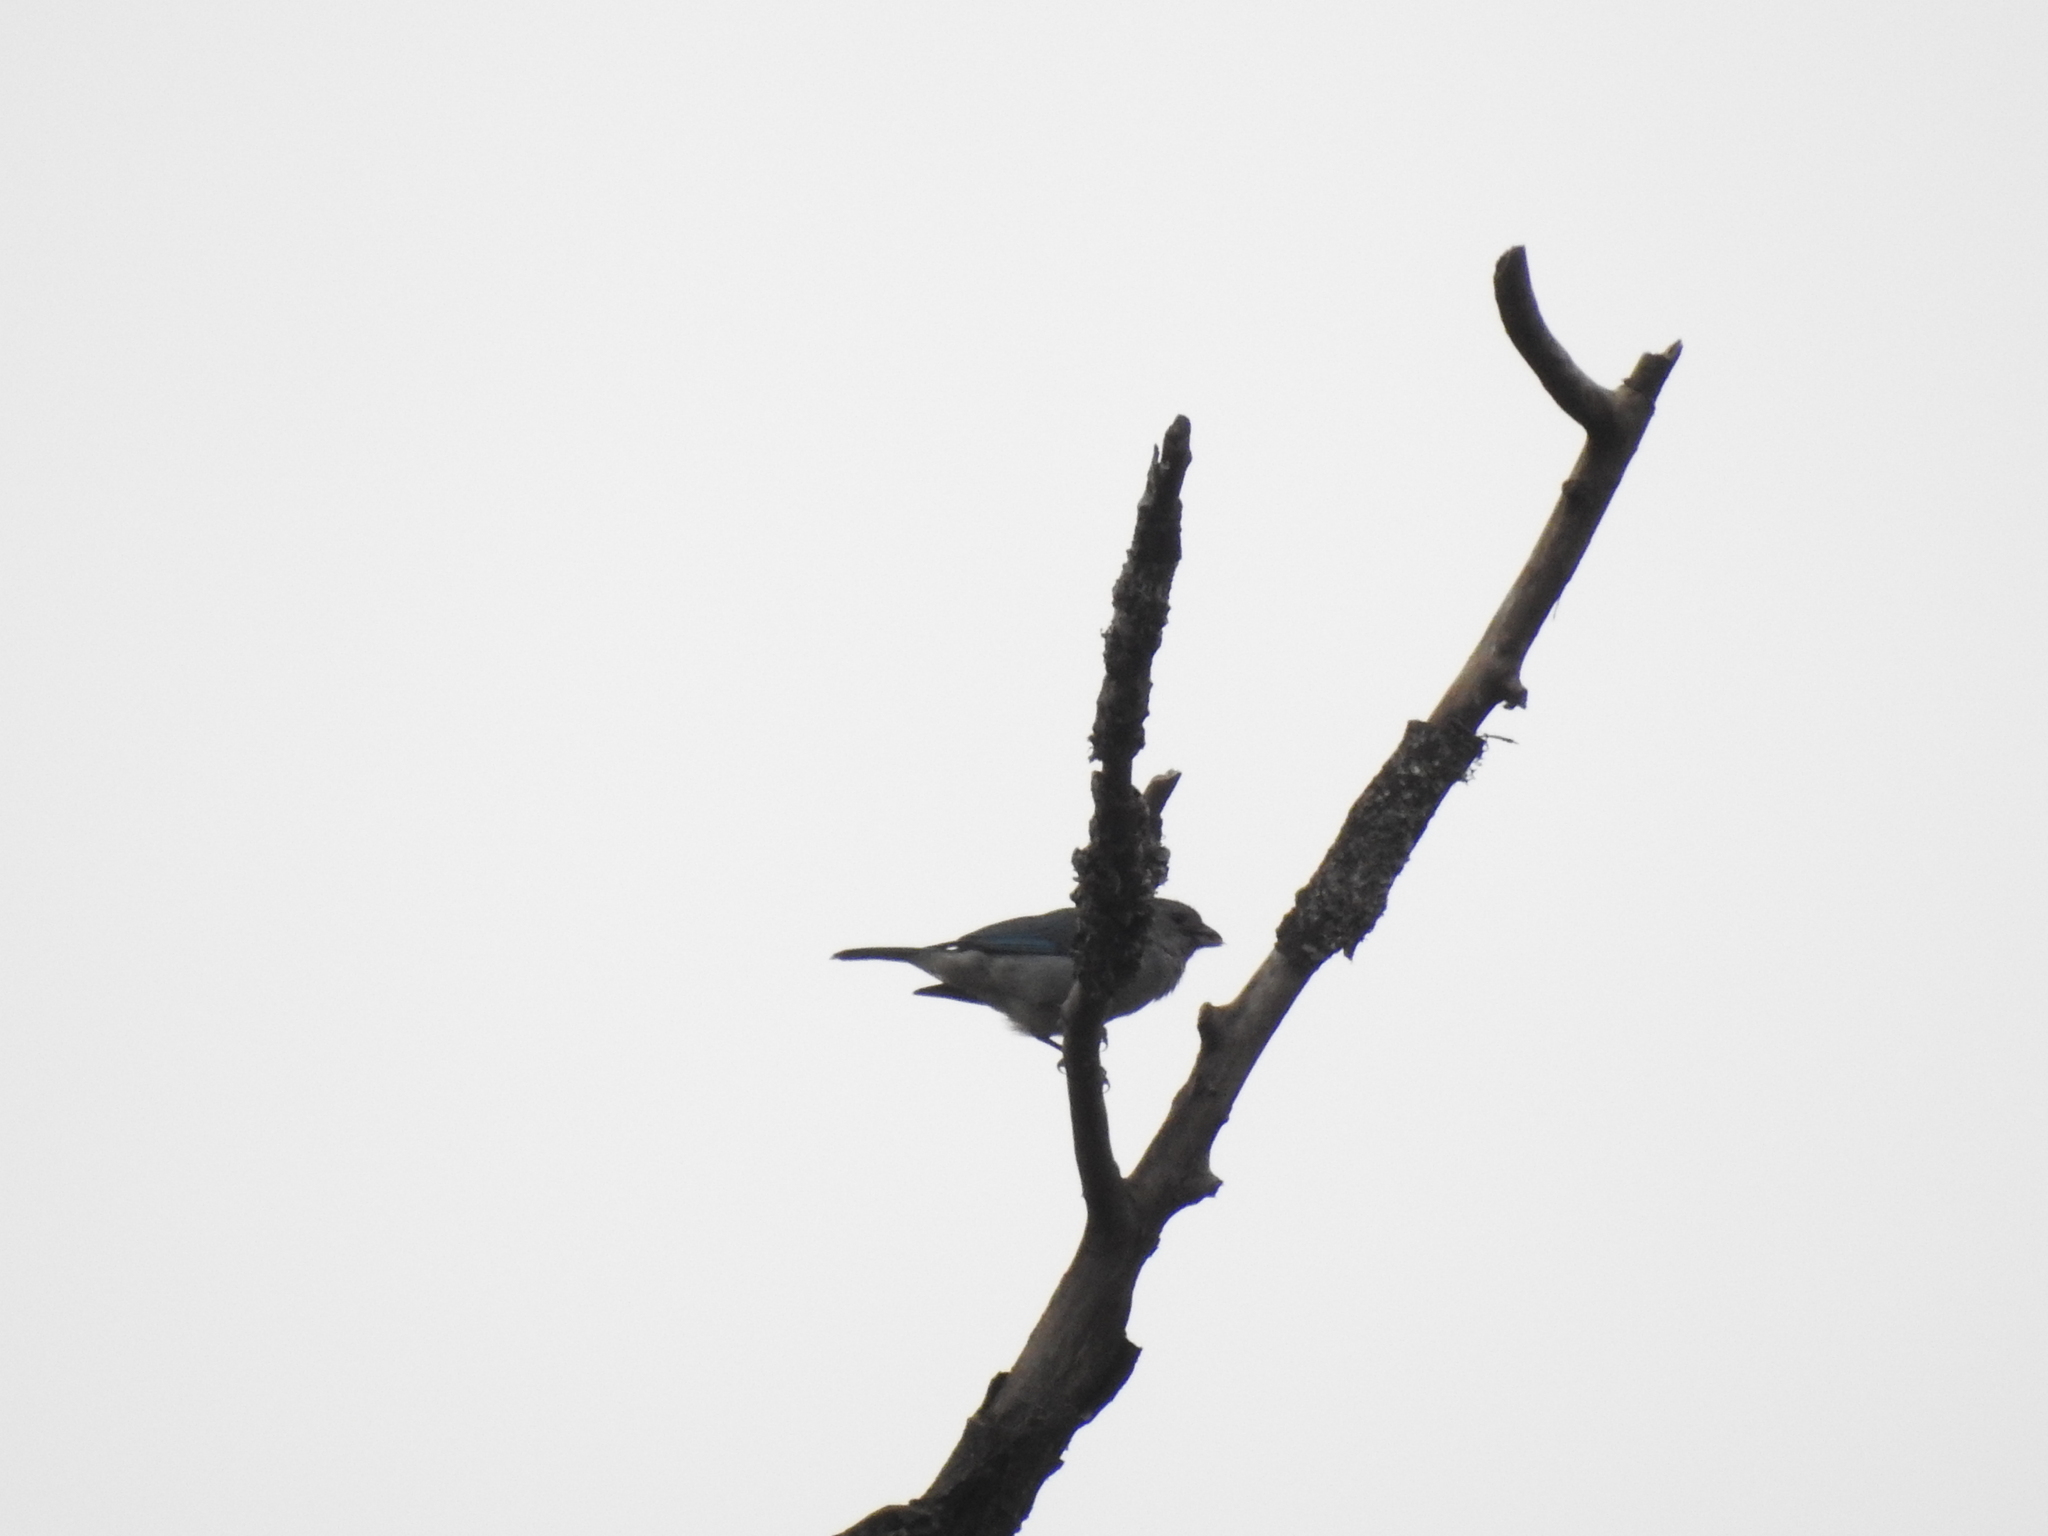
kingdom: Animalia
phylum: Chordata
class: Aves
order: Passeriformes
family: Thraupidae
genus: Thraupis
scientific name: Thraupis sayaca
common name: Sayaca tanager
